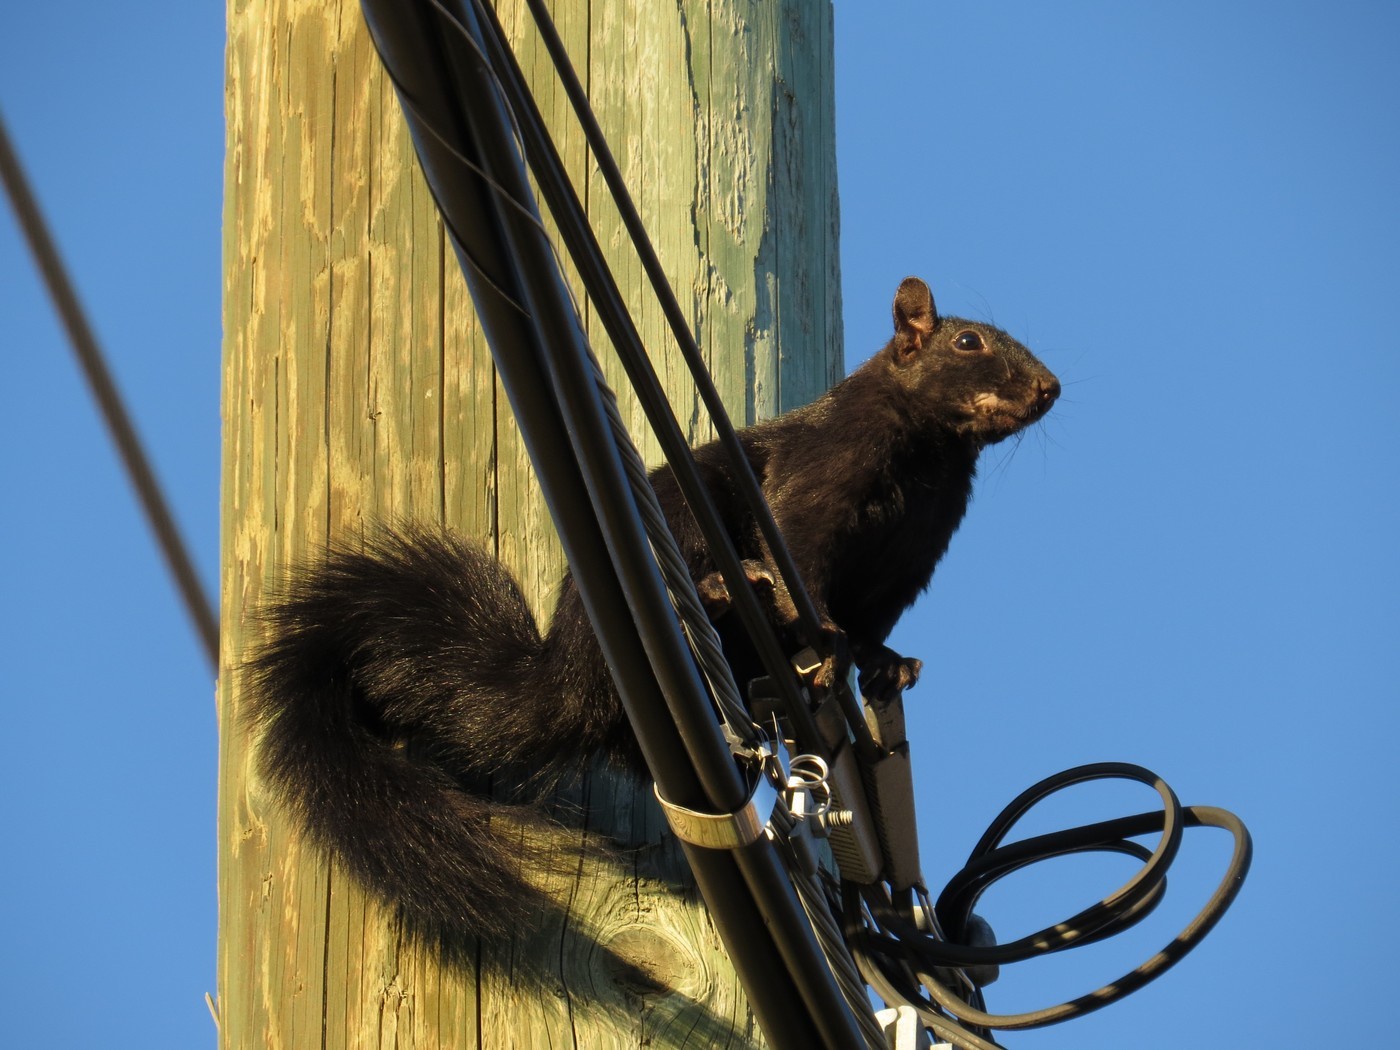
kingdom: Animalia
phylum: Chordata
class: Mammalia
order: Rodentia
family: Sciuridae
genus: Sciurus
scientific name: Sciurus carolinensis
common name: Eastern gray squirrel
